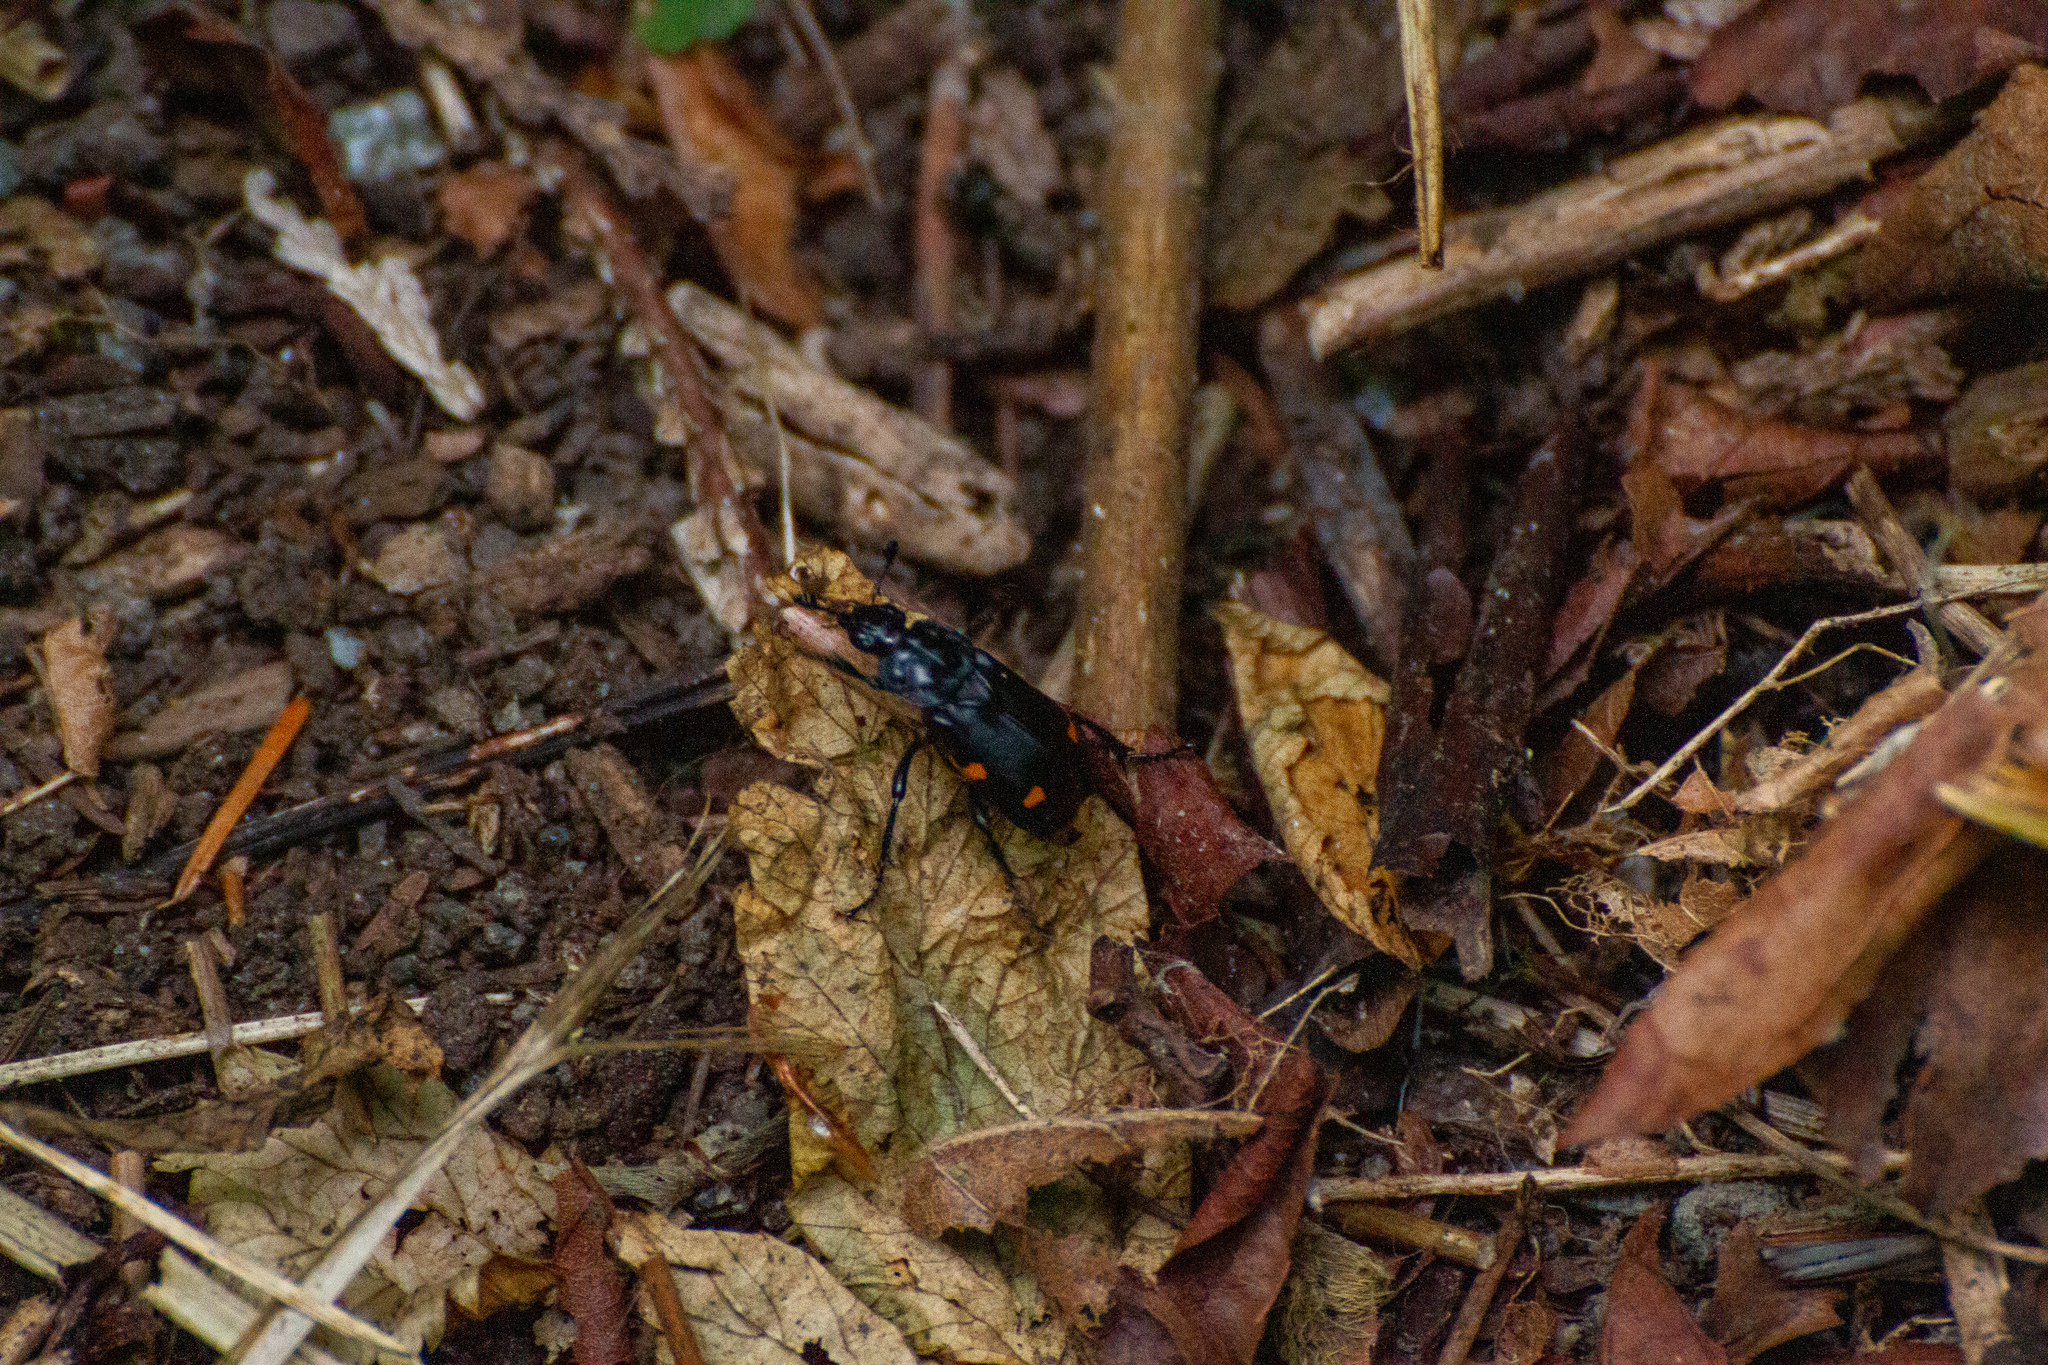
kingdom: Animalia
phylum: Arthropoda
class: Insecta
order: Coleoptera
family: Staphylinidae
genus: Nicrophorus
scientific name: Nicrophorus defodiens
